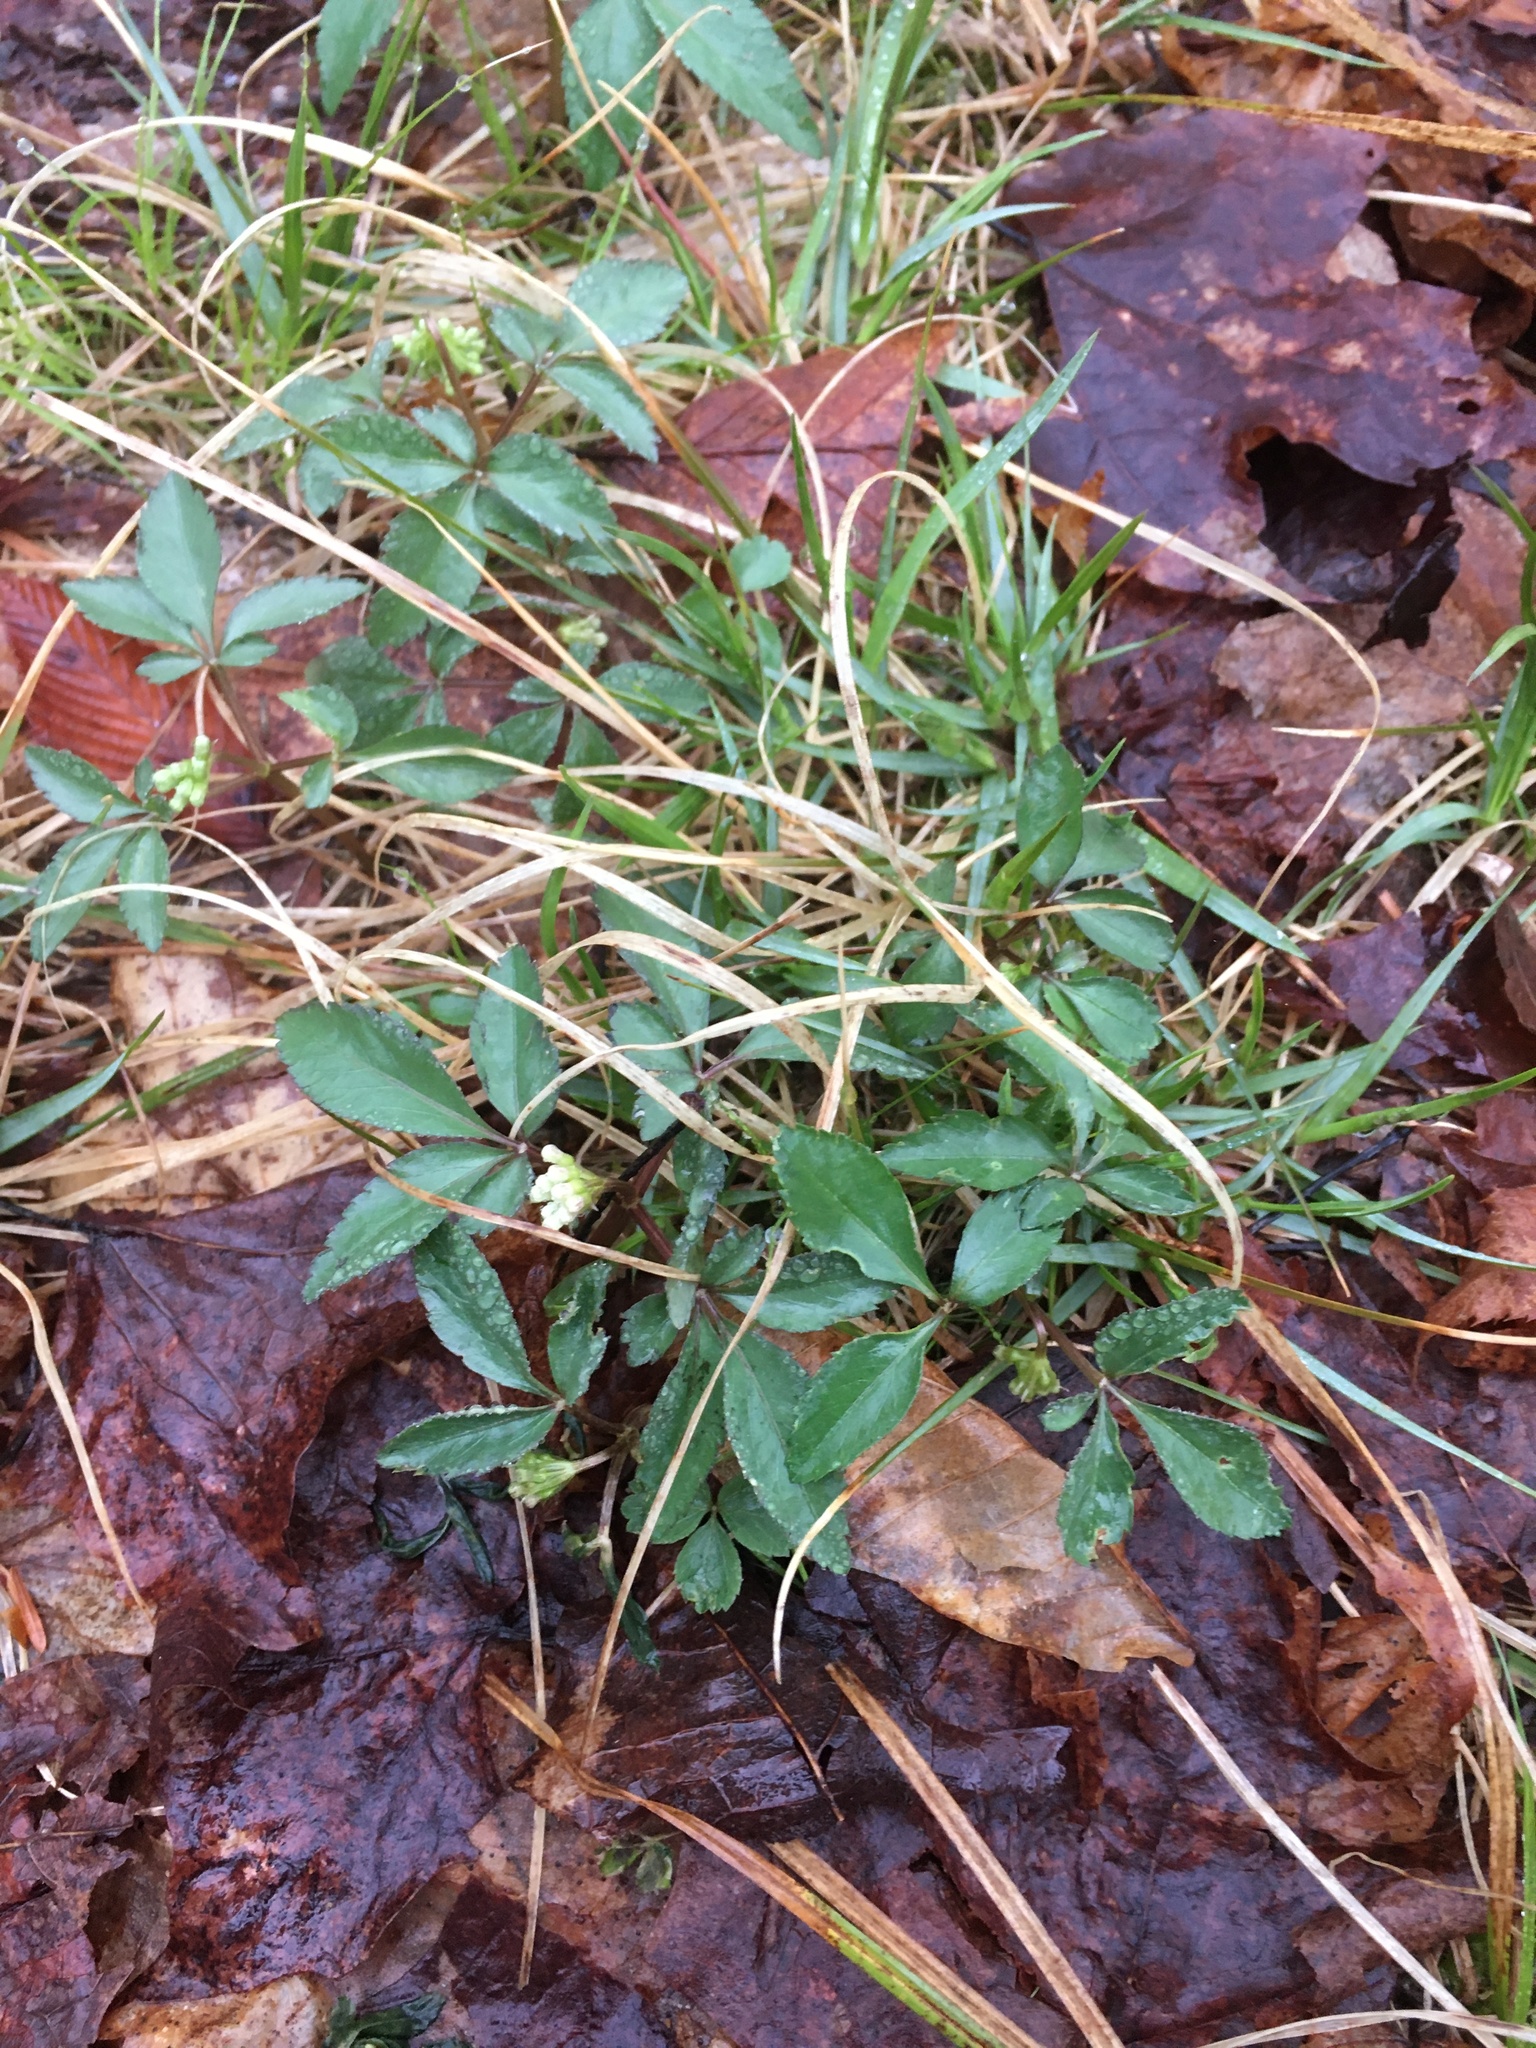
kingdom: Plantae
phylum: Tracheophyta
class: Magnoliopsida
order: Apiales
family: Araliaceae
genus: Panax
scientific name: Panax trifolius
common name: Dwarf ginseng
